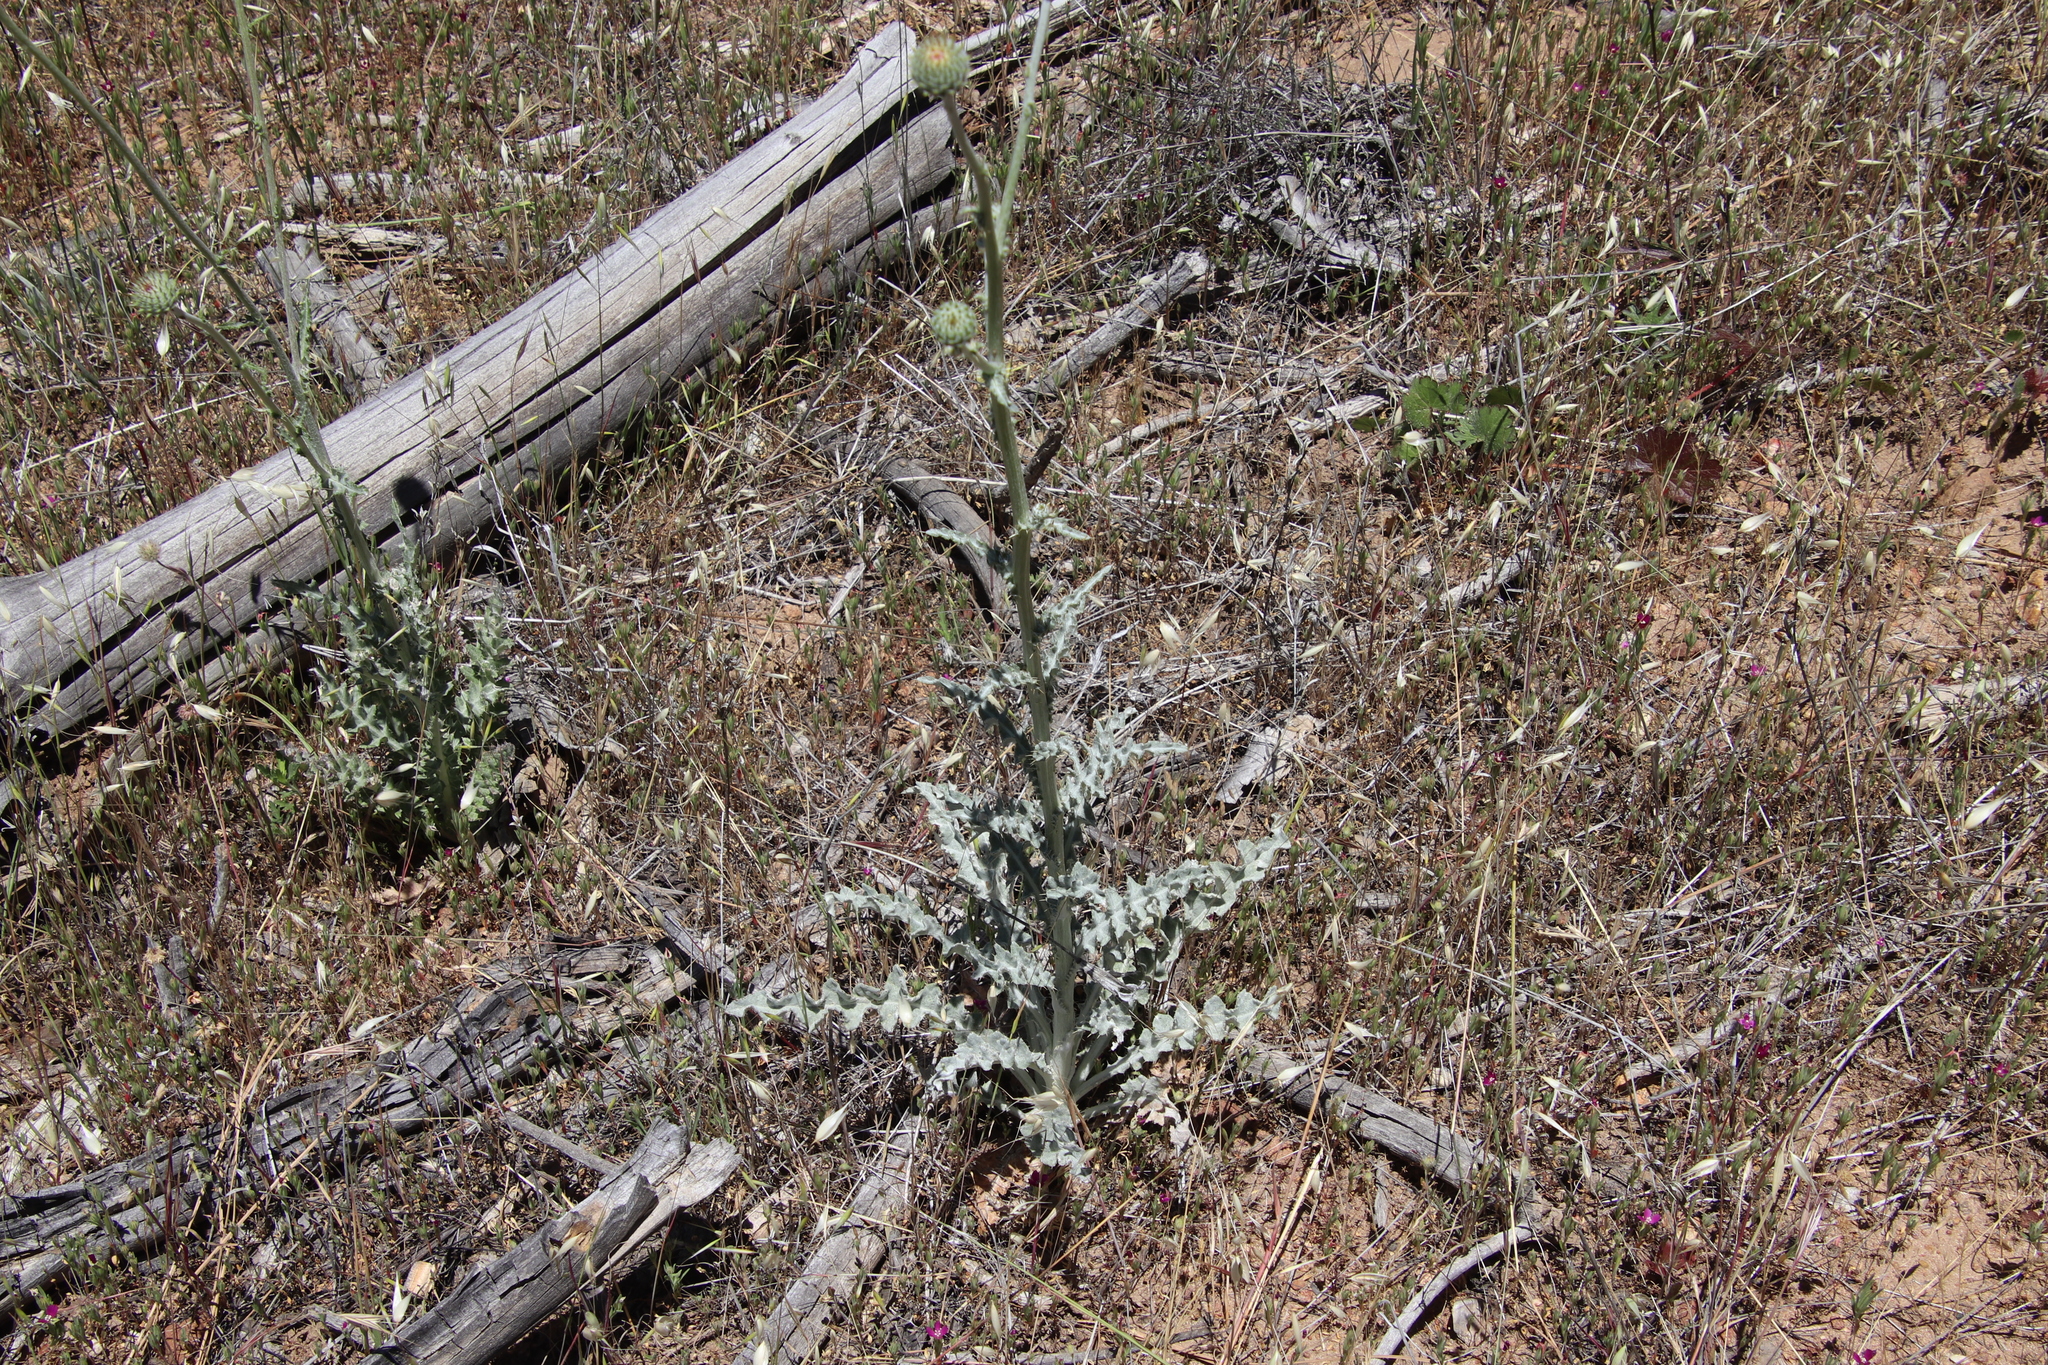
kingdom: Plantae
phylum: Tracheophyta
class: Magnoliopsida
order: Asterales
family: Asteraceae
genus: Cirsium
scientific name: Cirsium occidentale
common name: Western thistle
